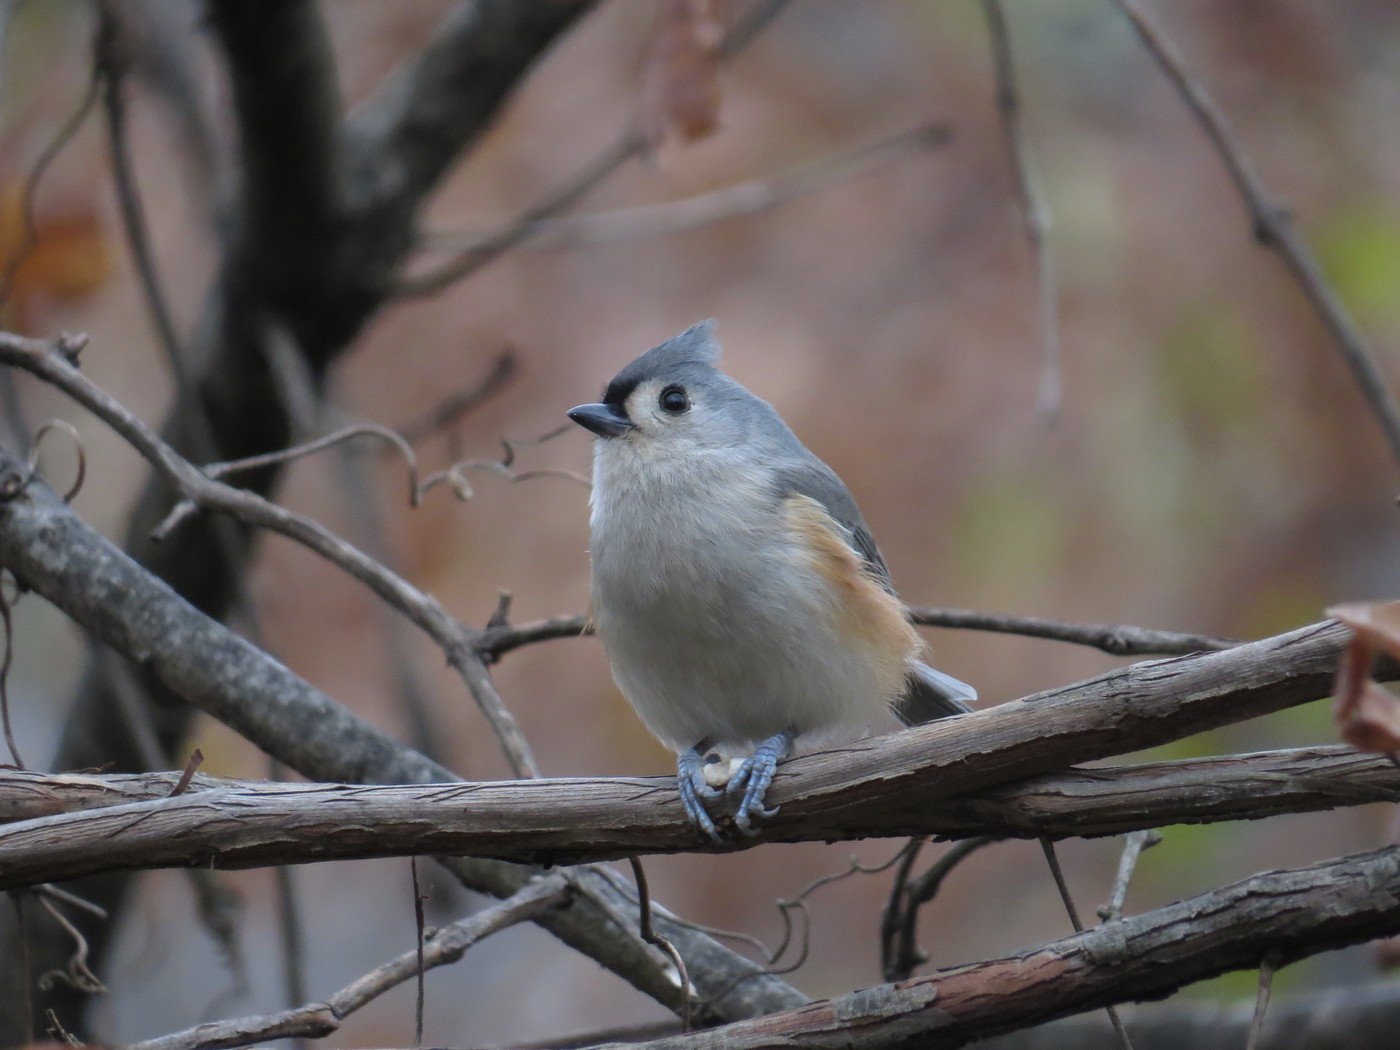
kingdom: Animalia
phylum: Chordata
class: Aves
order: Passeriformes
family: Paridae
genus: Baeolophus
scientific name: Baeolophus bicolor
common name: Tufted titmouse
